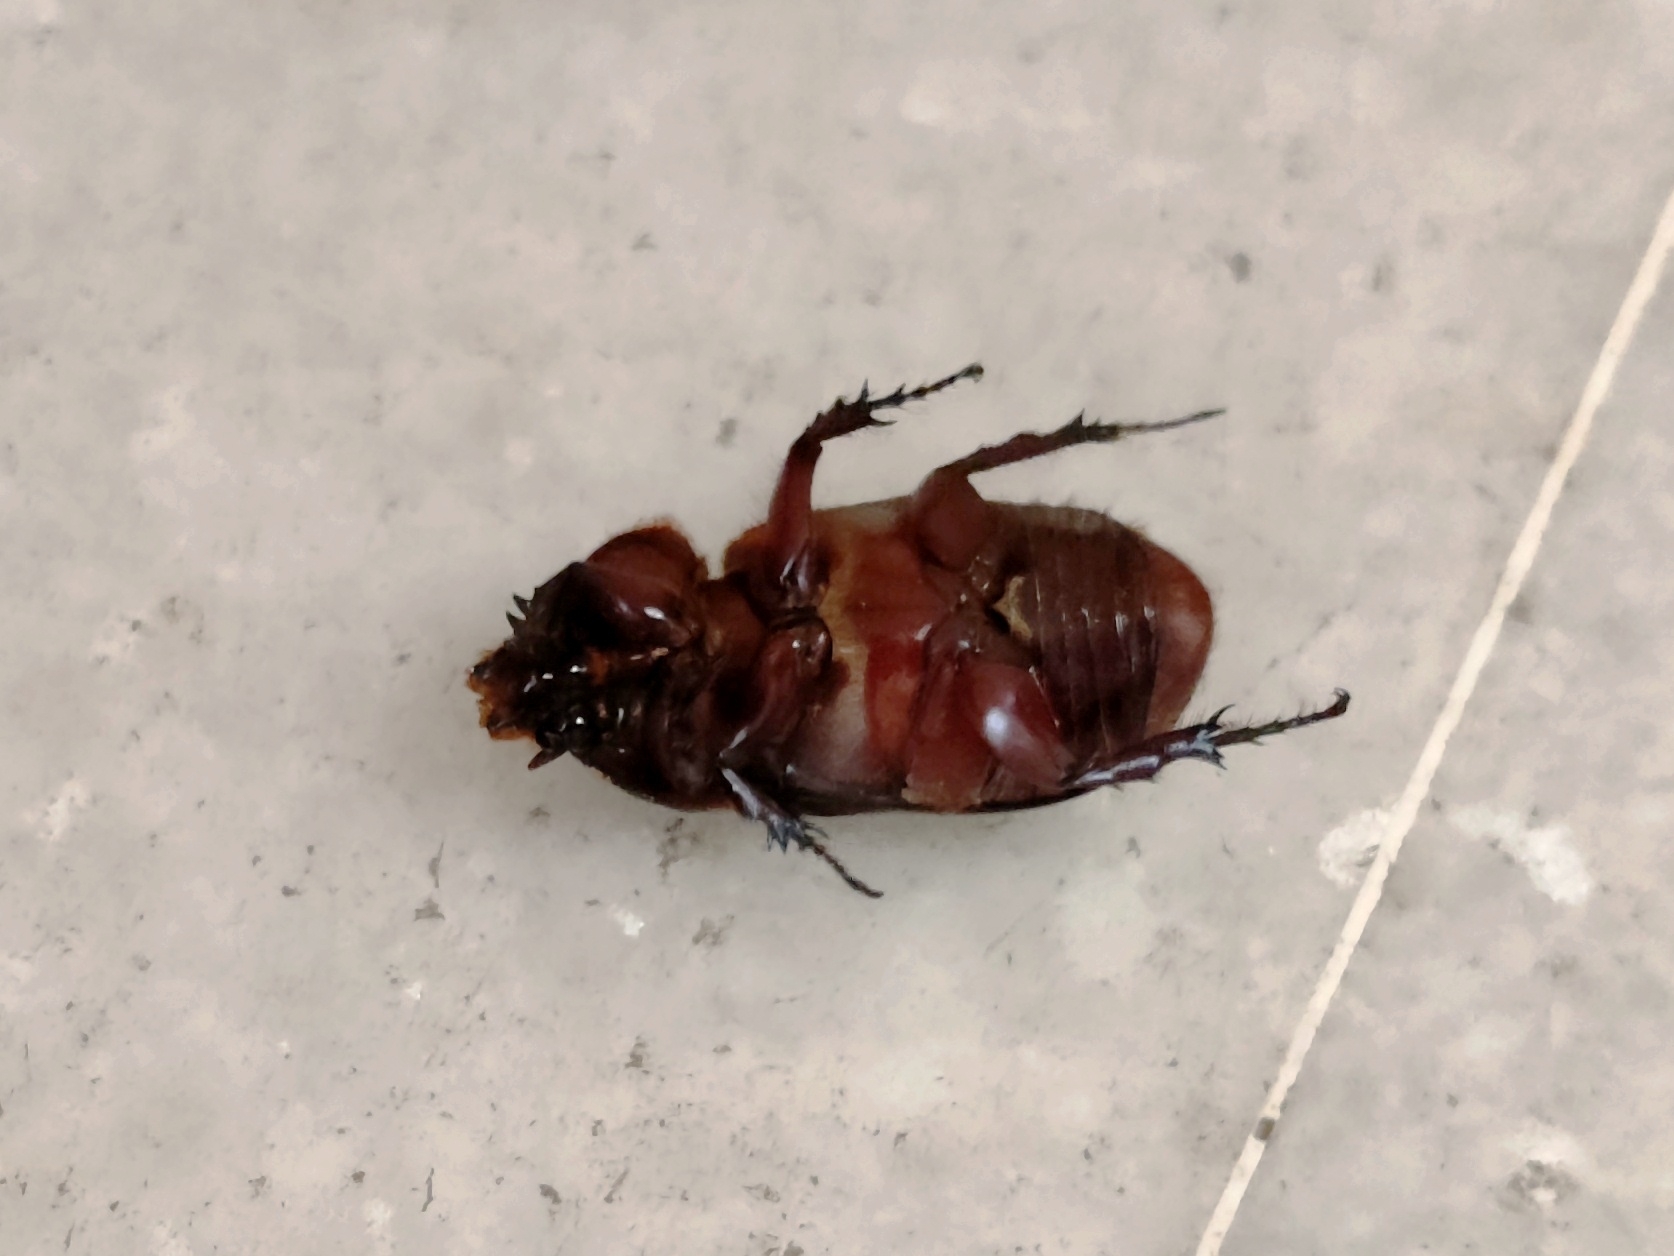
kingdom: Animalia
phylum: Arthropoda
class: Insecta
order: Coleoptera
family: Scarabaeidae
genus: Oryctes
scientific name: Oryctes rhinoceros
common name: Coconut rhinoceros beetle
